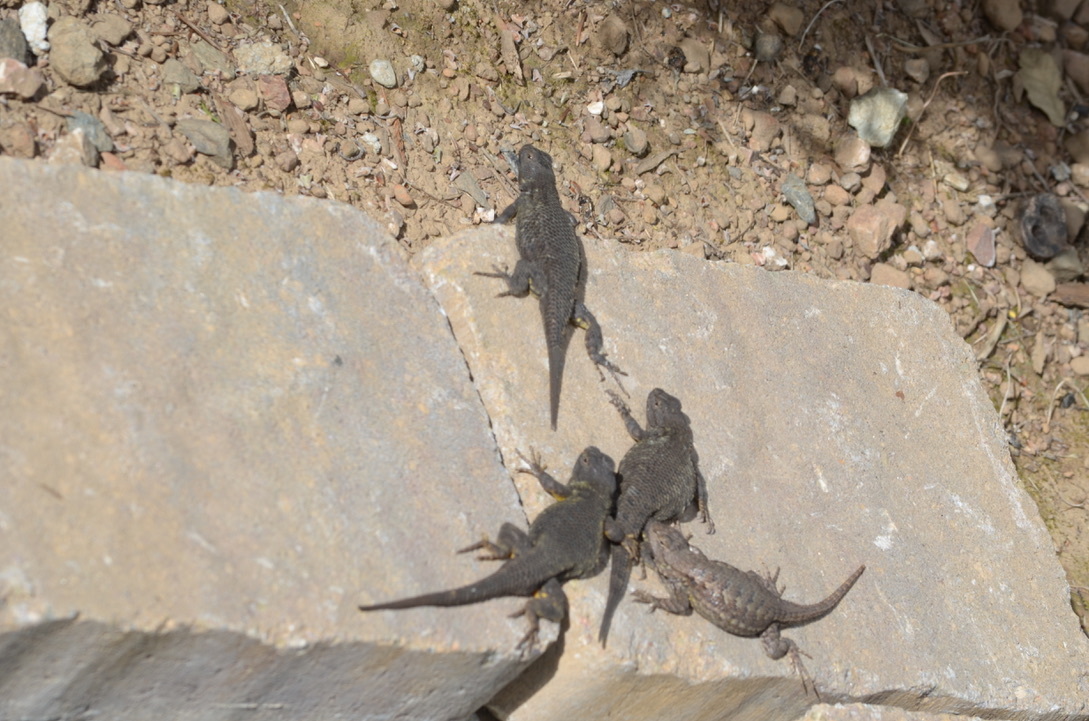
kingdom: Animalia
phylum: Chordata
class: Squamata
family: Phrynosomatidae
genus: Sceloporus
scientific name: Sceloporus occidentalis
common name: Western fence lizard
